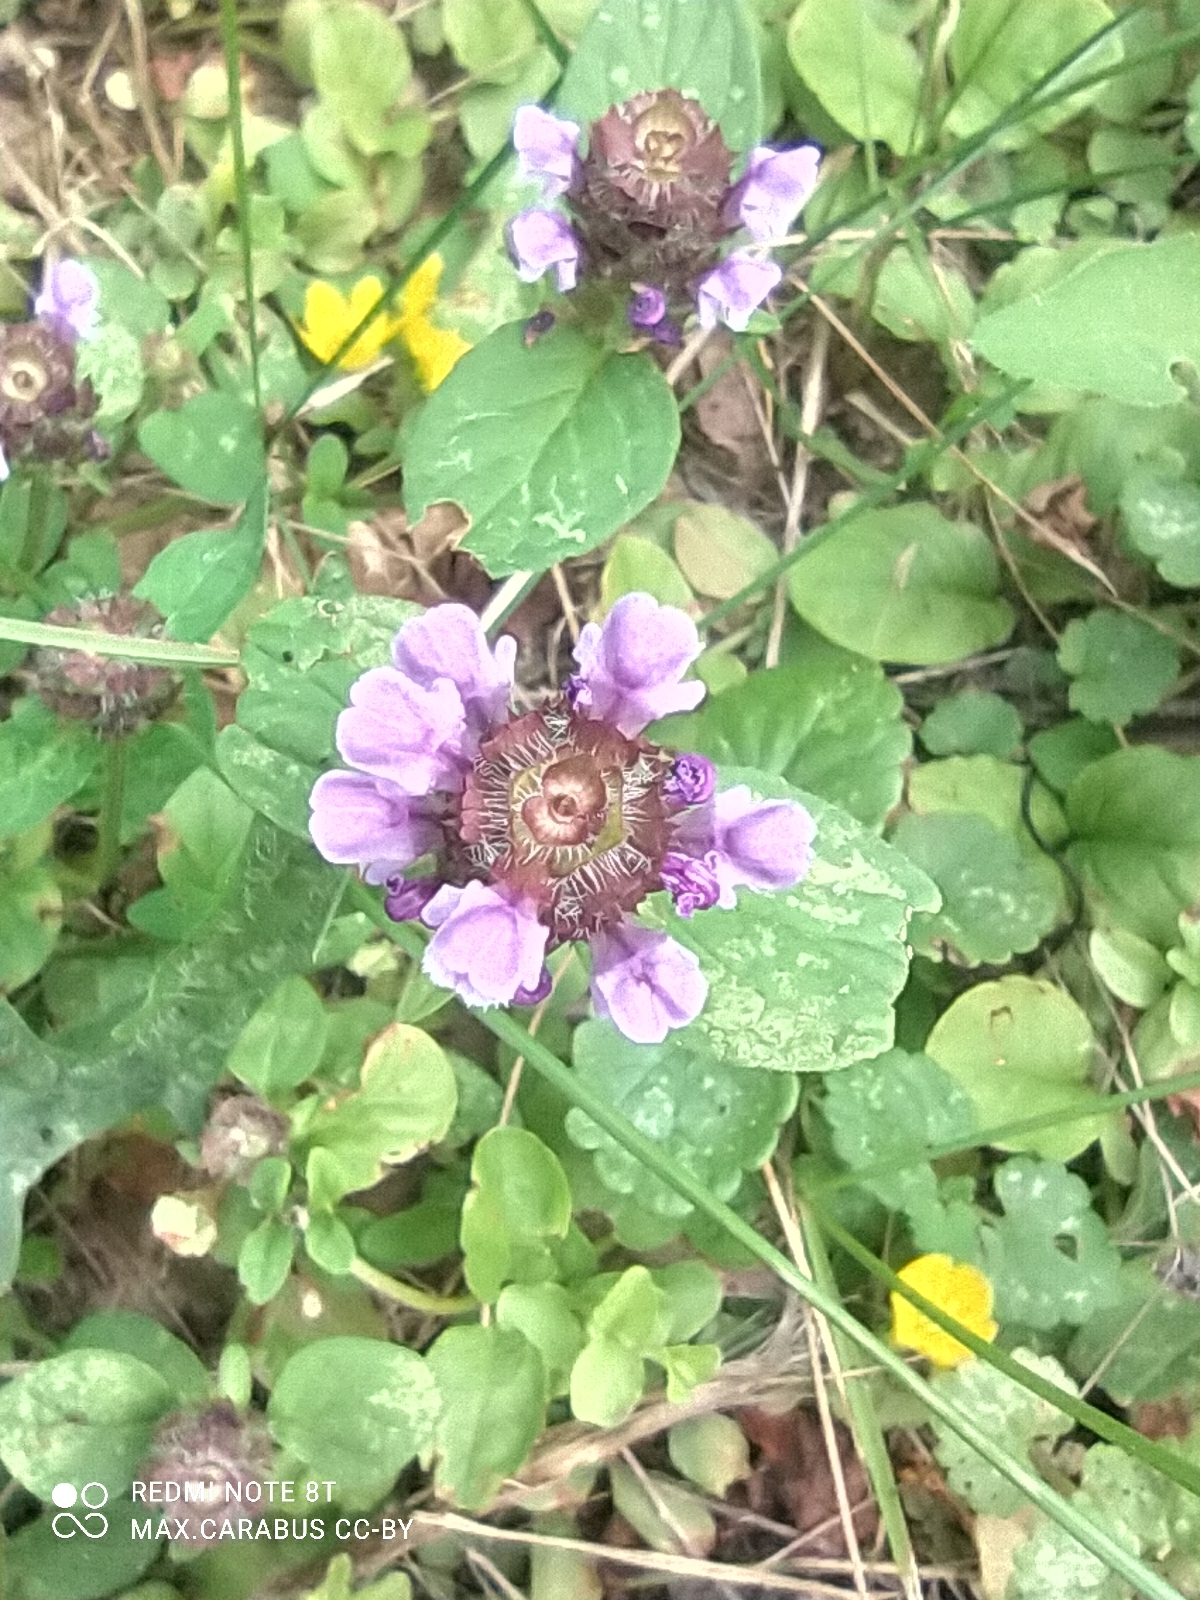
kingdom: Plantae
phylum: Tracheophyta
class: Magnoliopsida
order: Lamiales
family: Lamiaceae
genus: Prunella
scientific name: Prunella vulgaris
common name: Heal-all
